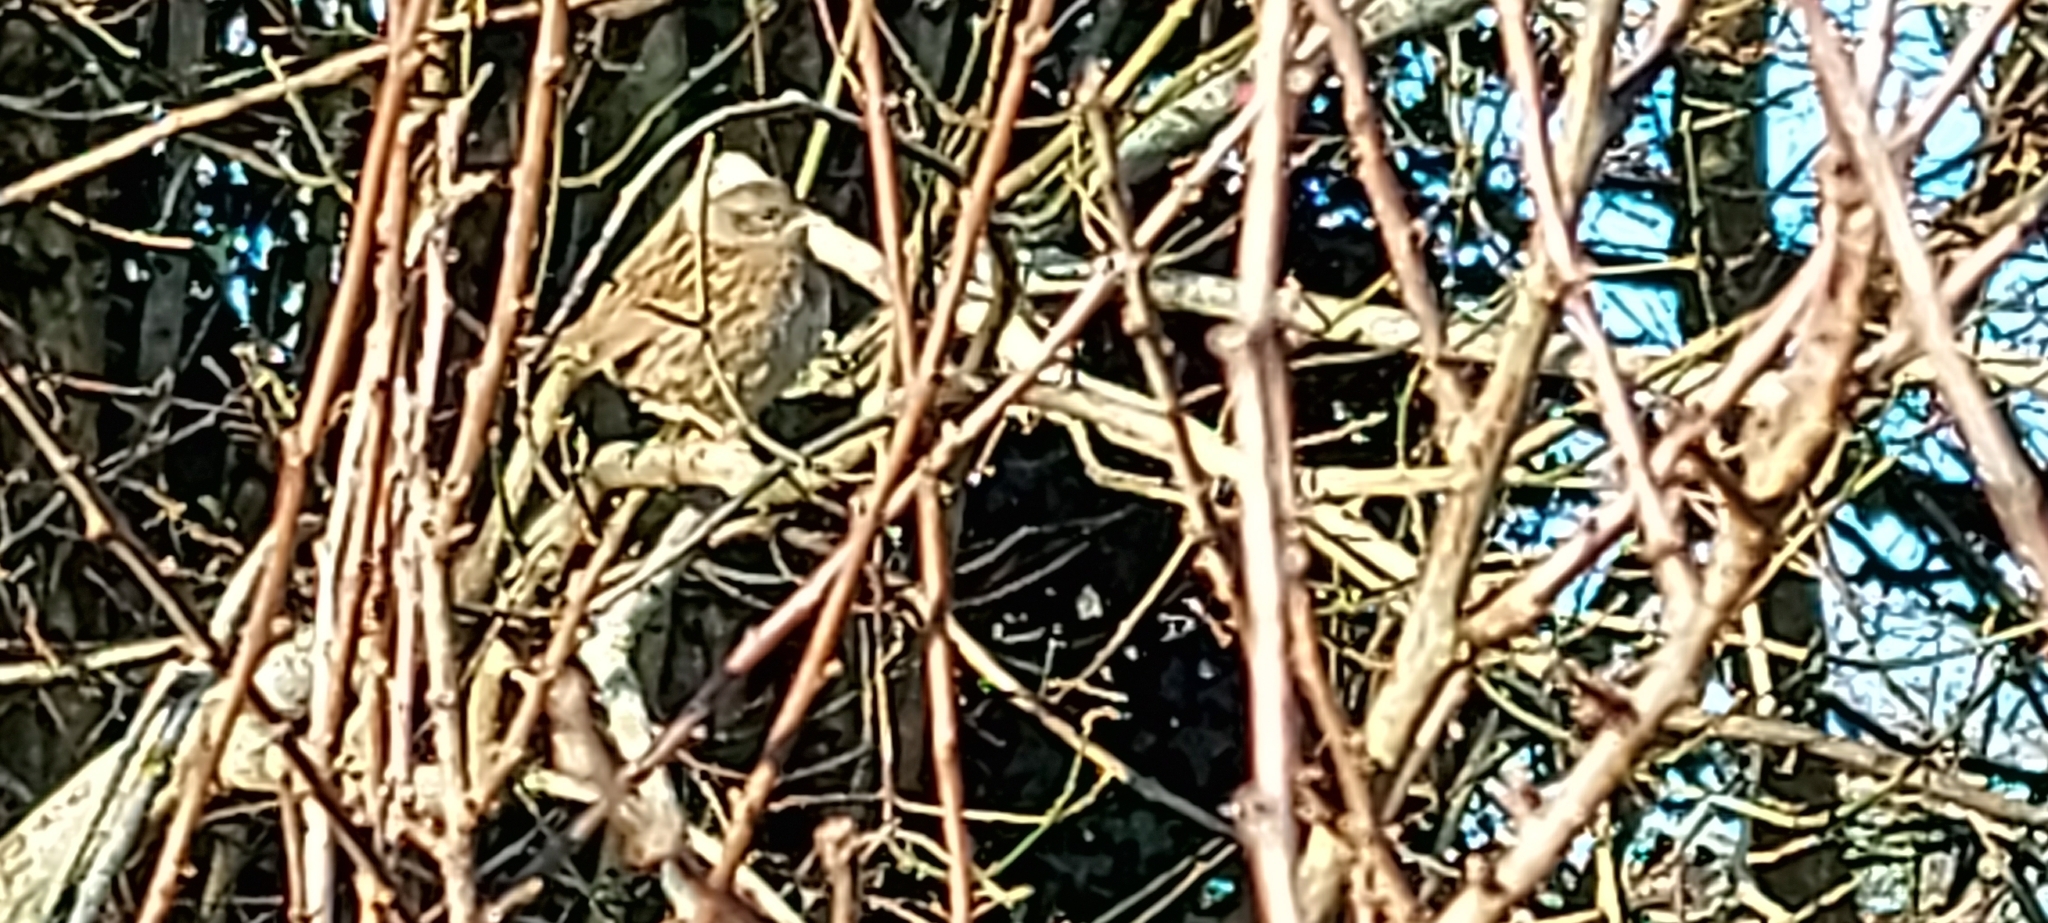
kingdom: Animalia
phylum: Chordata
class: Aves
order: Passeriformes
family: Prunellidae
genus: Prunella
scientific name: Prunella modularis
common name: Dunnock
